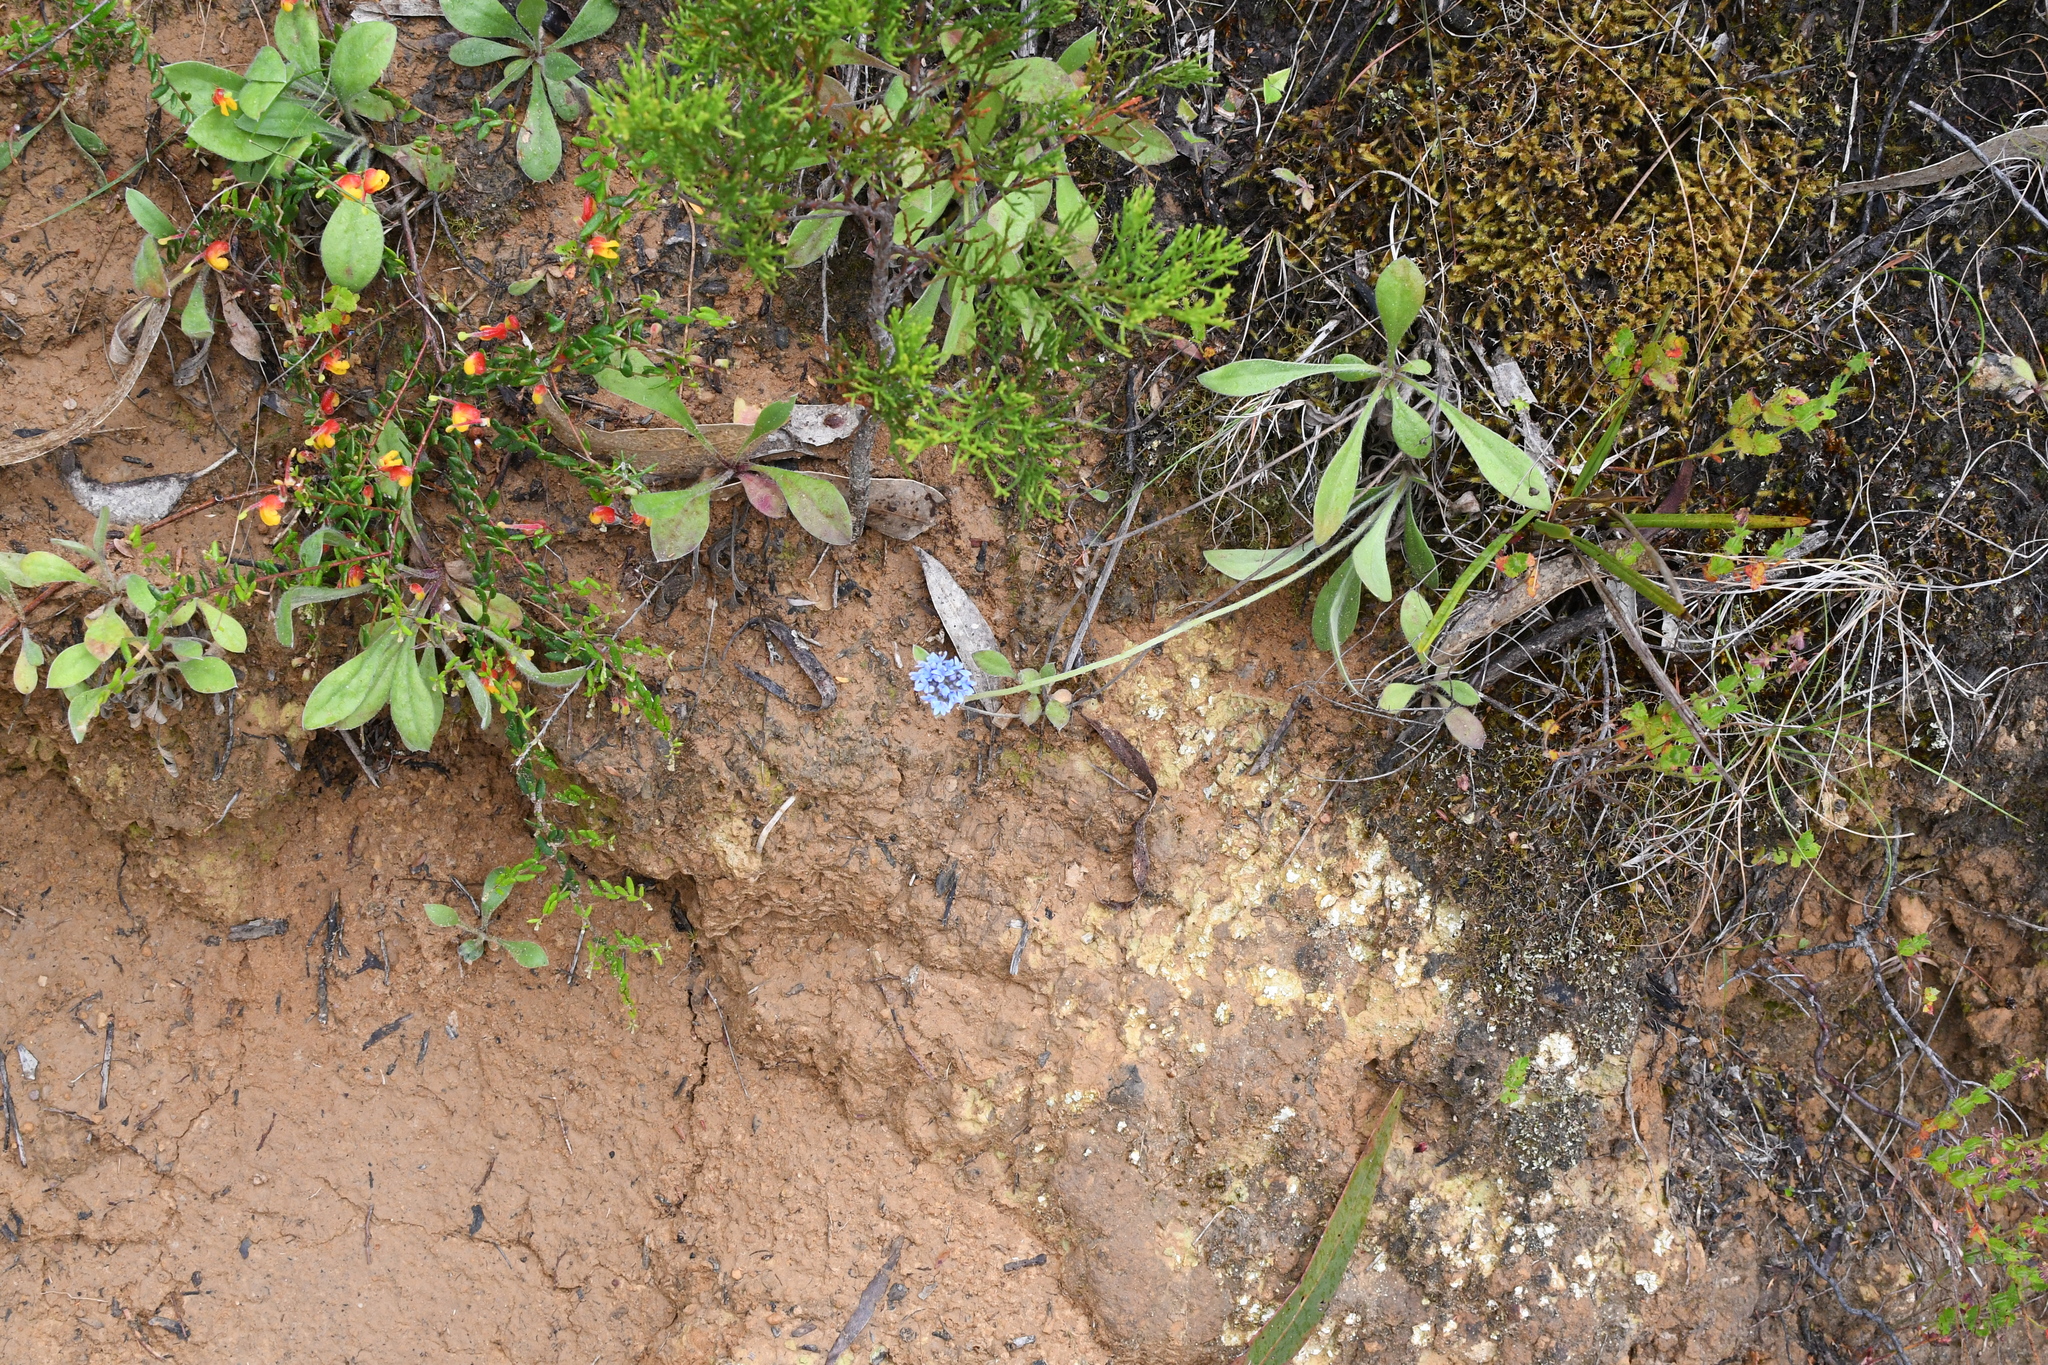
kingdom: Plantae
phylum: Tracheophyta
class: Magnoliopsida
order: Asterales
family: Goodeniaceae
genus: Brunonia
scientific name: Brunonia australis
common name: Blue pincushion
